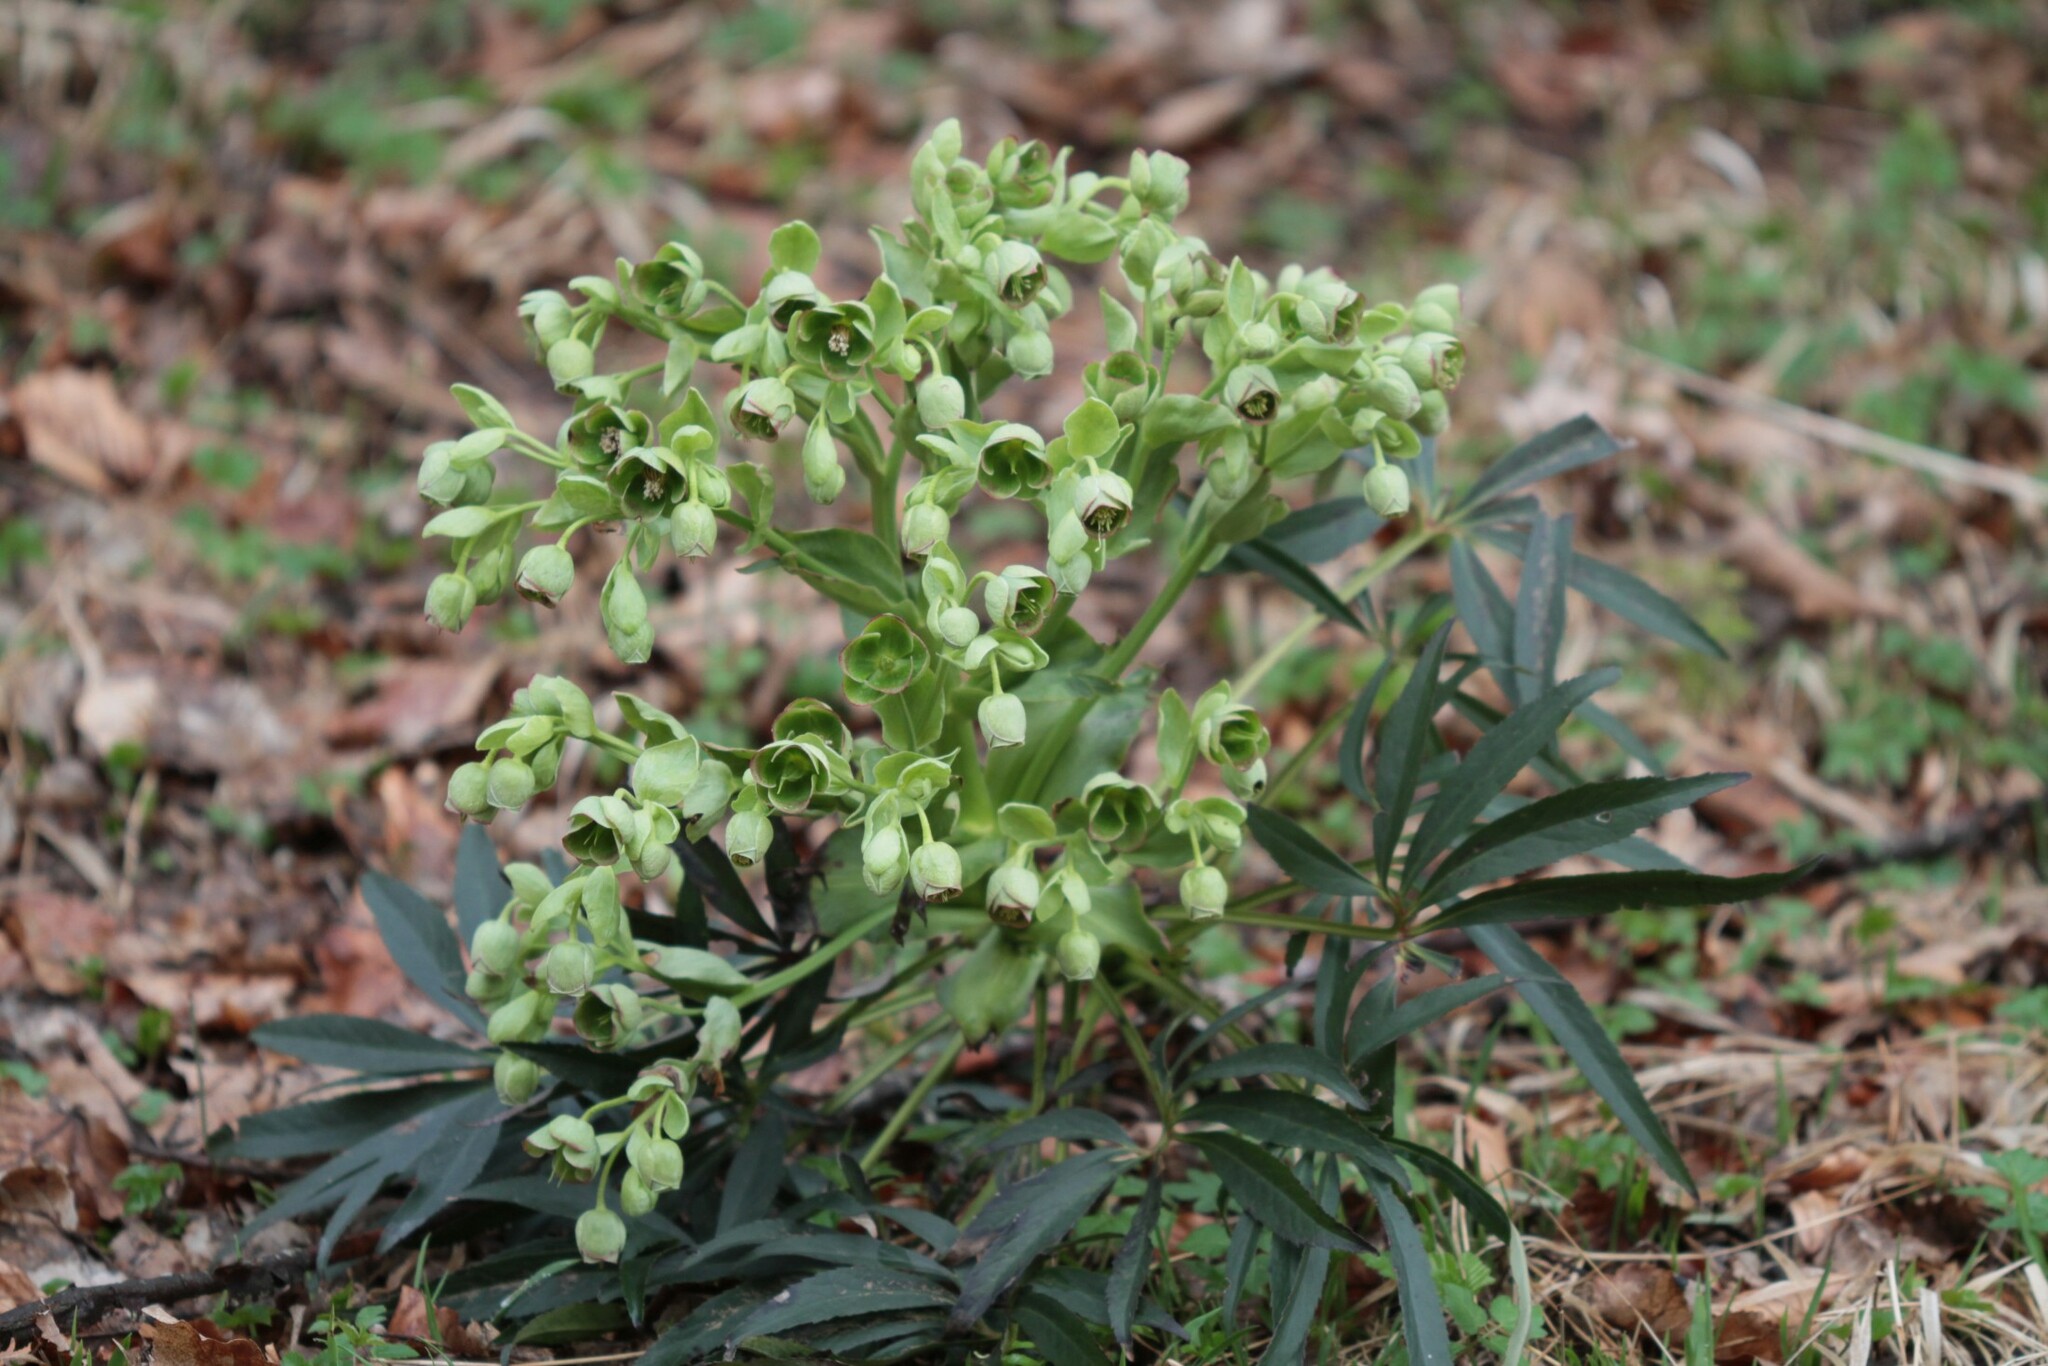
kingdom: Plantae
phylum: Tracheophyta
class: Magnoliopsida
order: Ranunculales
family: Ranunculaceae
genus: Helleborus
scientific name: Helleborus foetidus
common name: Stinking hellebore
